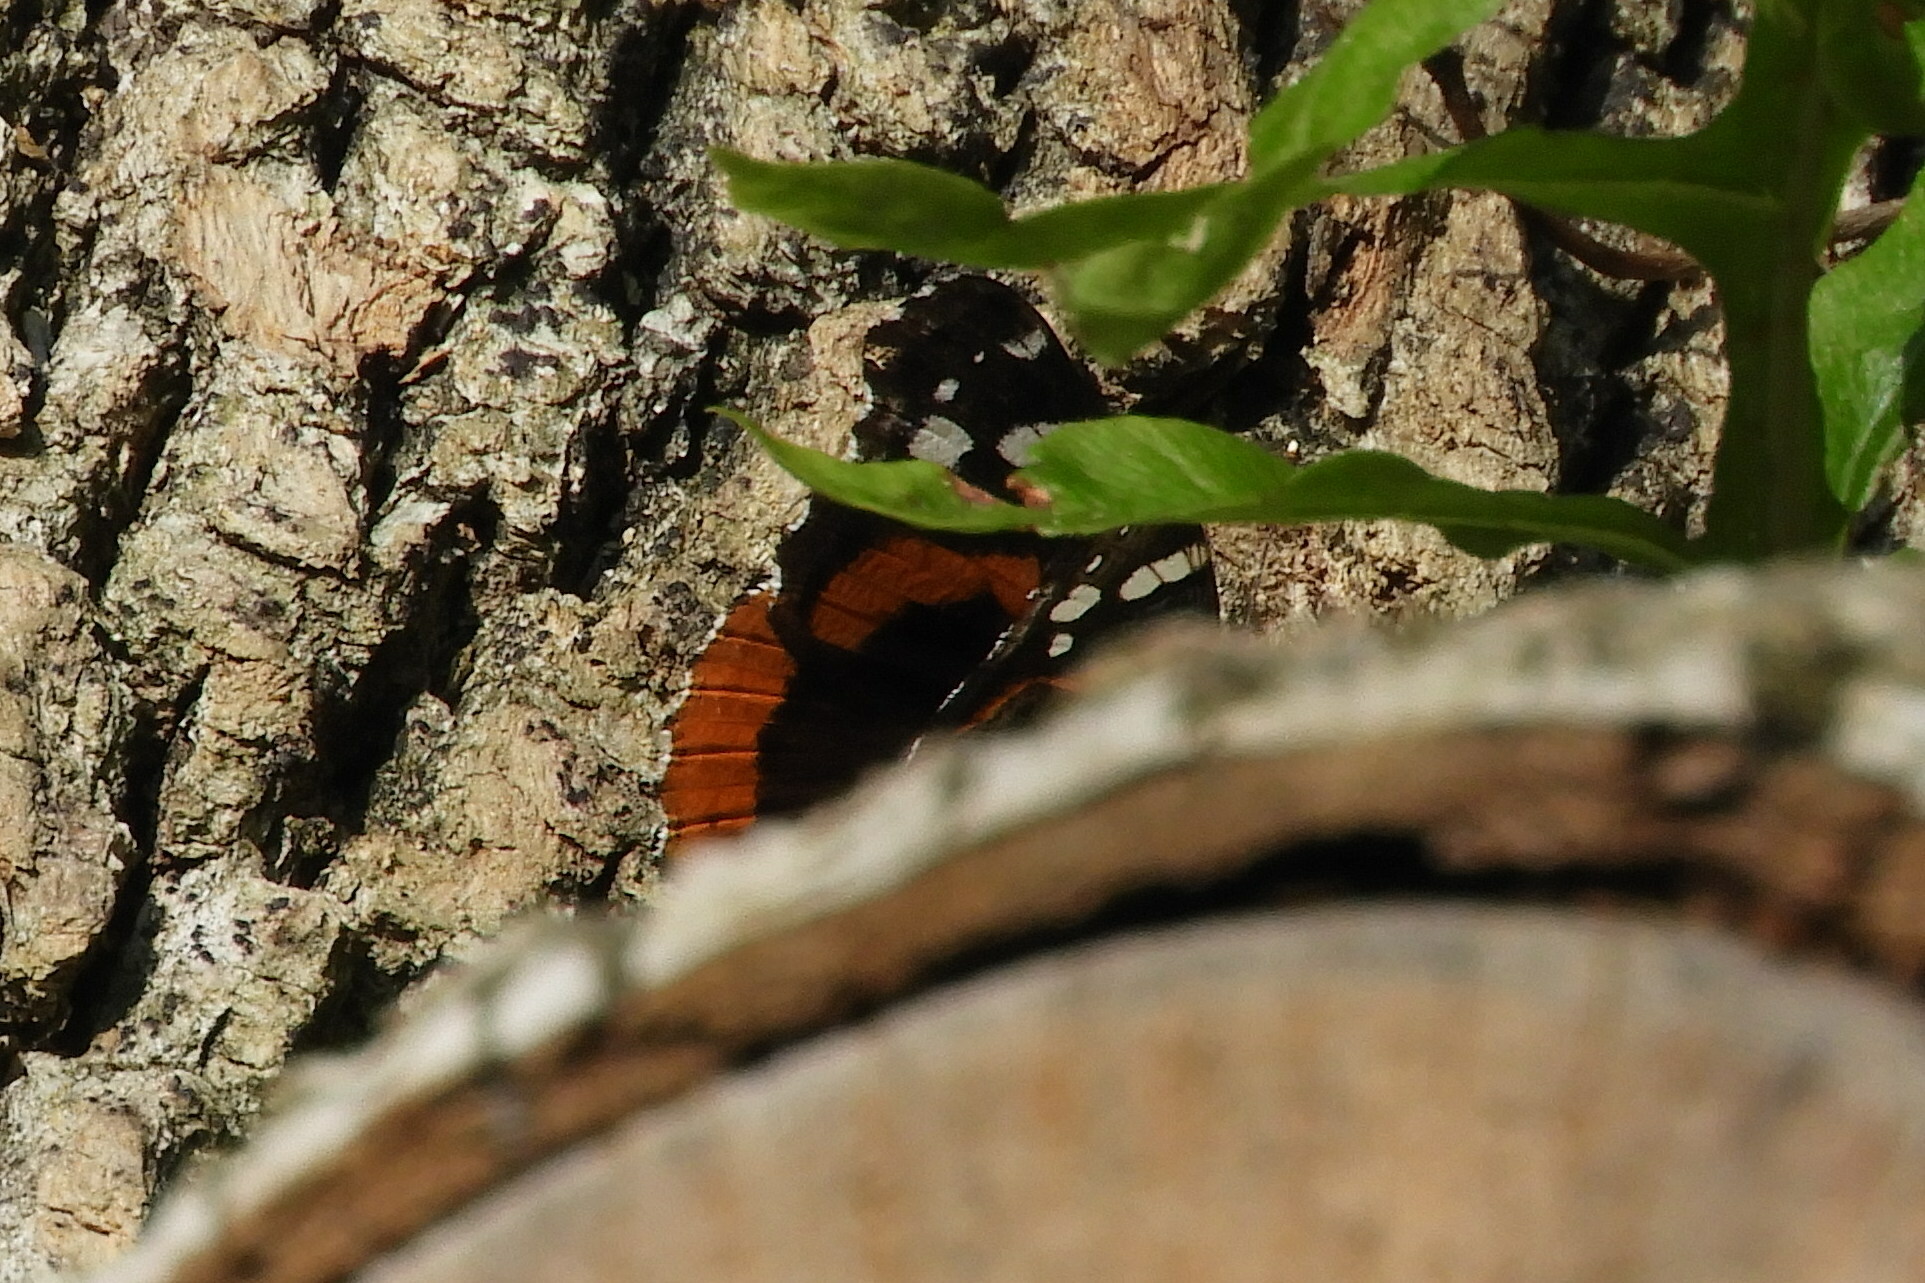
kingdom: Animalia
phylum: Arthropoda
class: Insecta
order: Lepidoptera
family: Nymphalidae
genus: Vanessa
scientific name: Vanessa atalanta
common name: Red admiral
